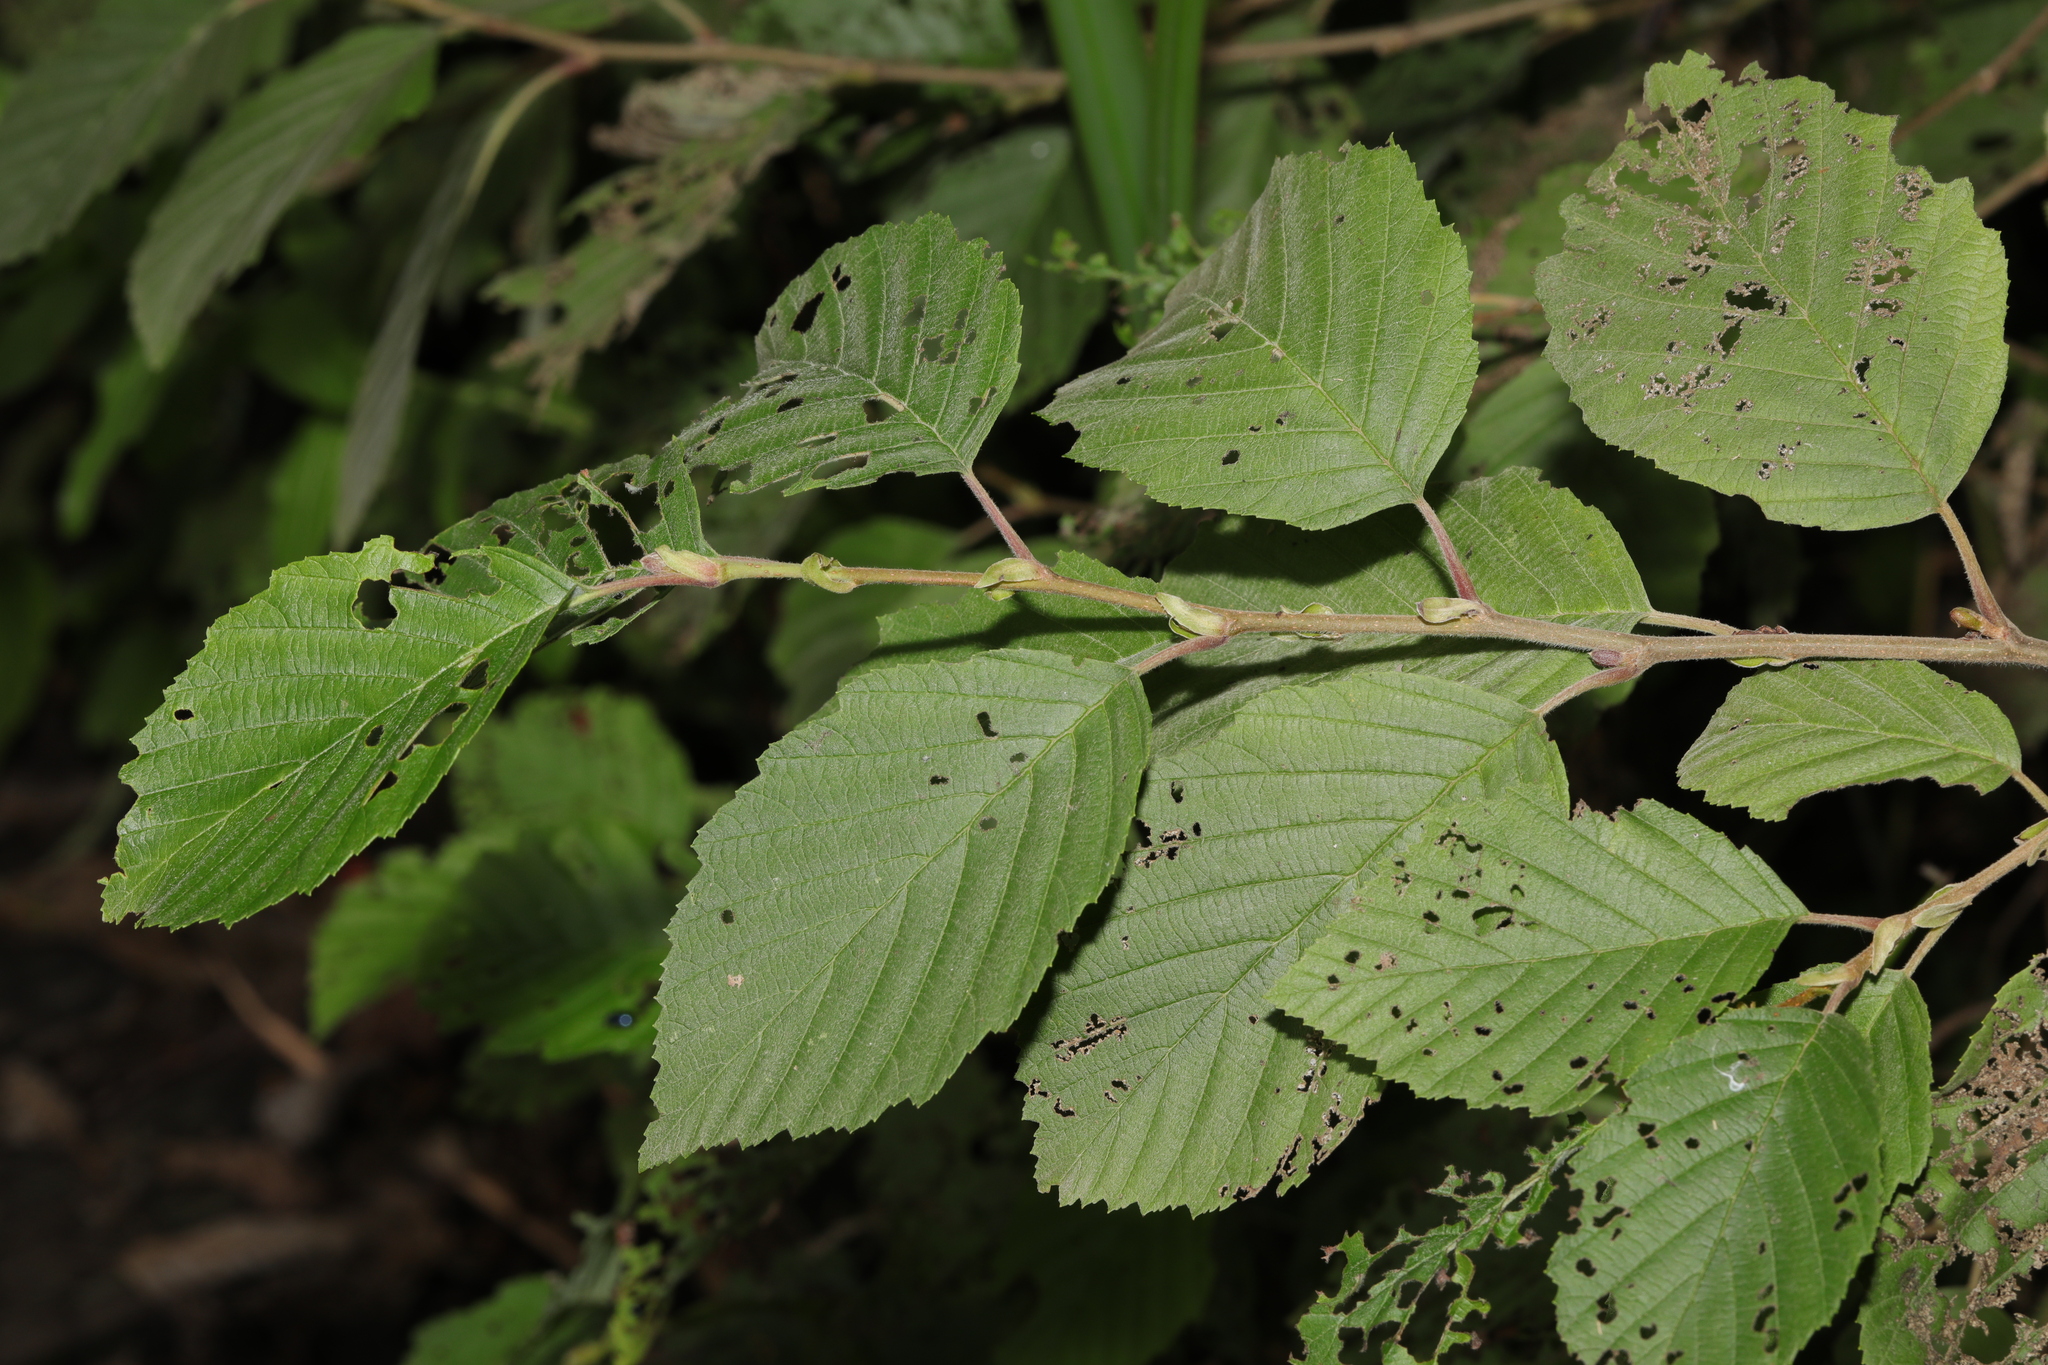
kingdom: Plantae
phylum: Tracheophyta
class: Magnoliopsida
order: Fagales
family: Betulaceae
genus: Alnus
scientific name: Alnus incana
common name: Grey alder
